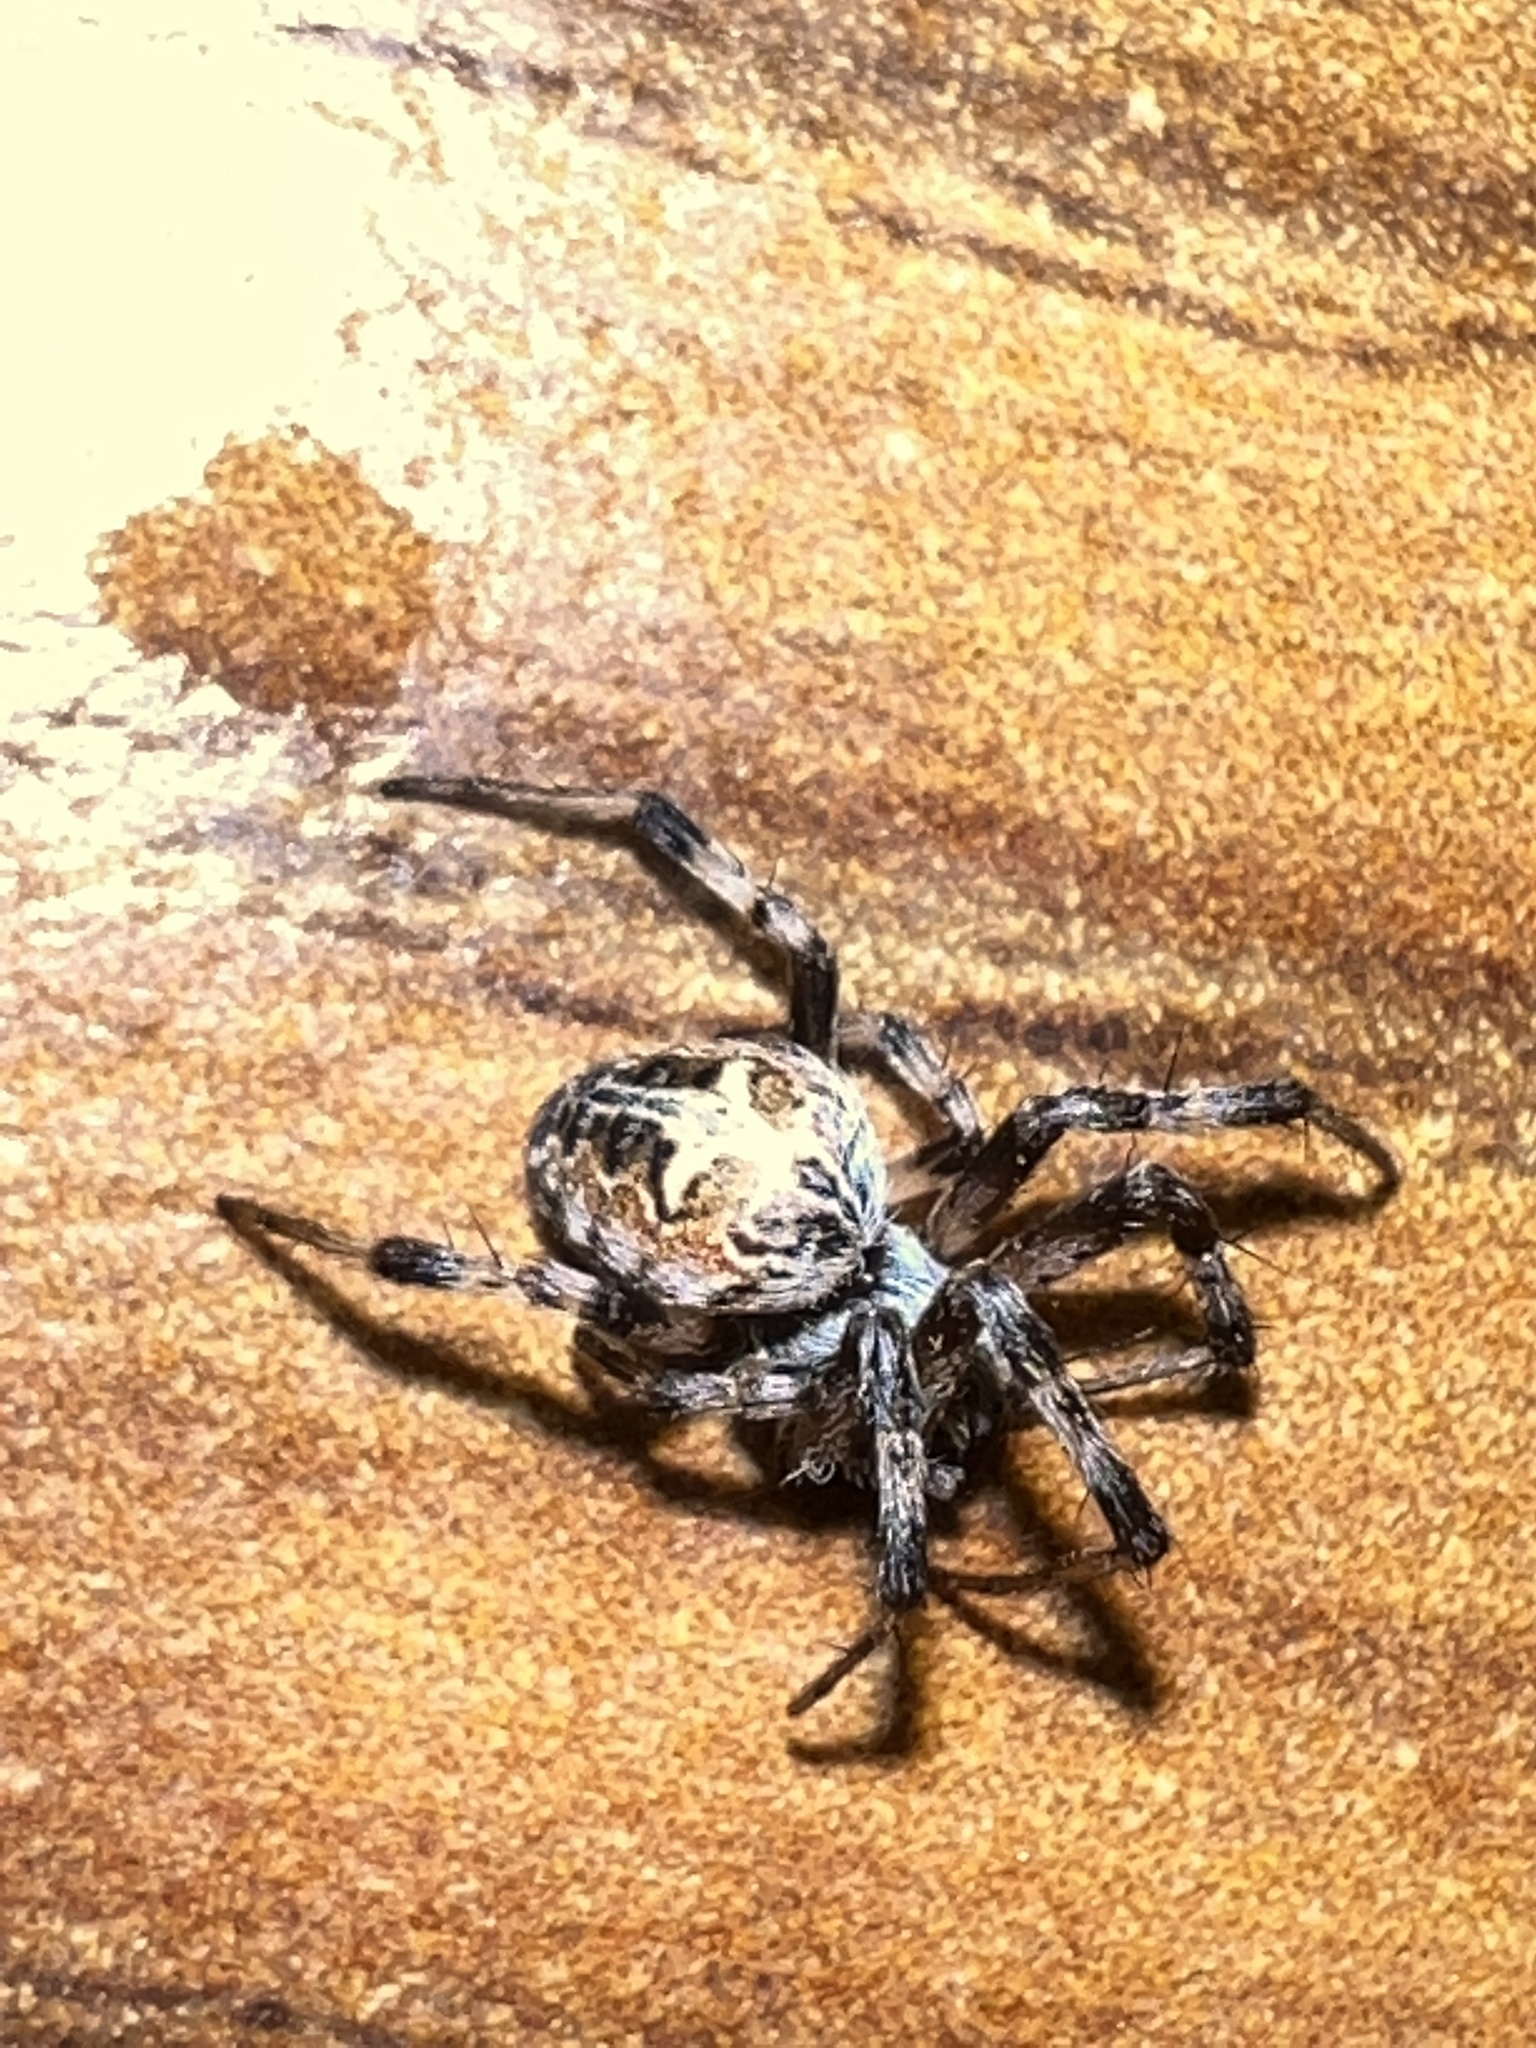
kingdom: Animalia
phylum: Arthropoda
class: Arachnida
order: Araneae
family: Araneidae
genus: Metepeira
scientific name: Metepeira labyrinthea
